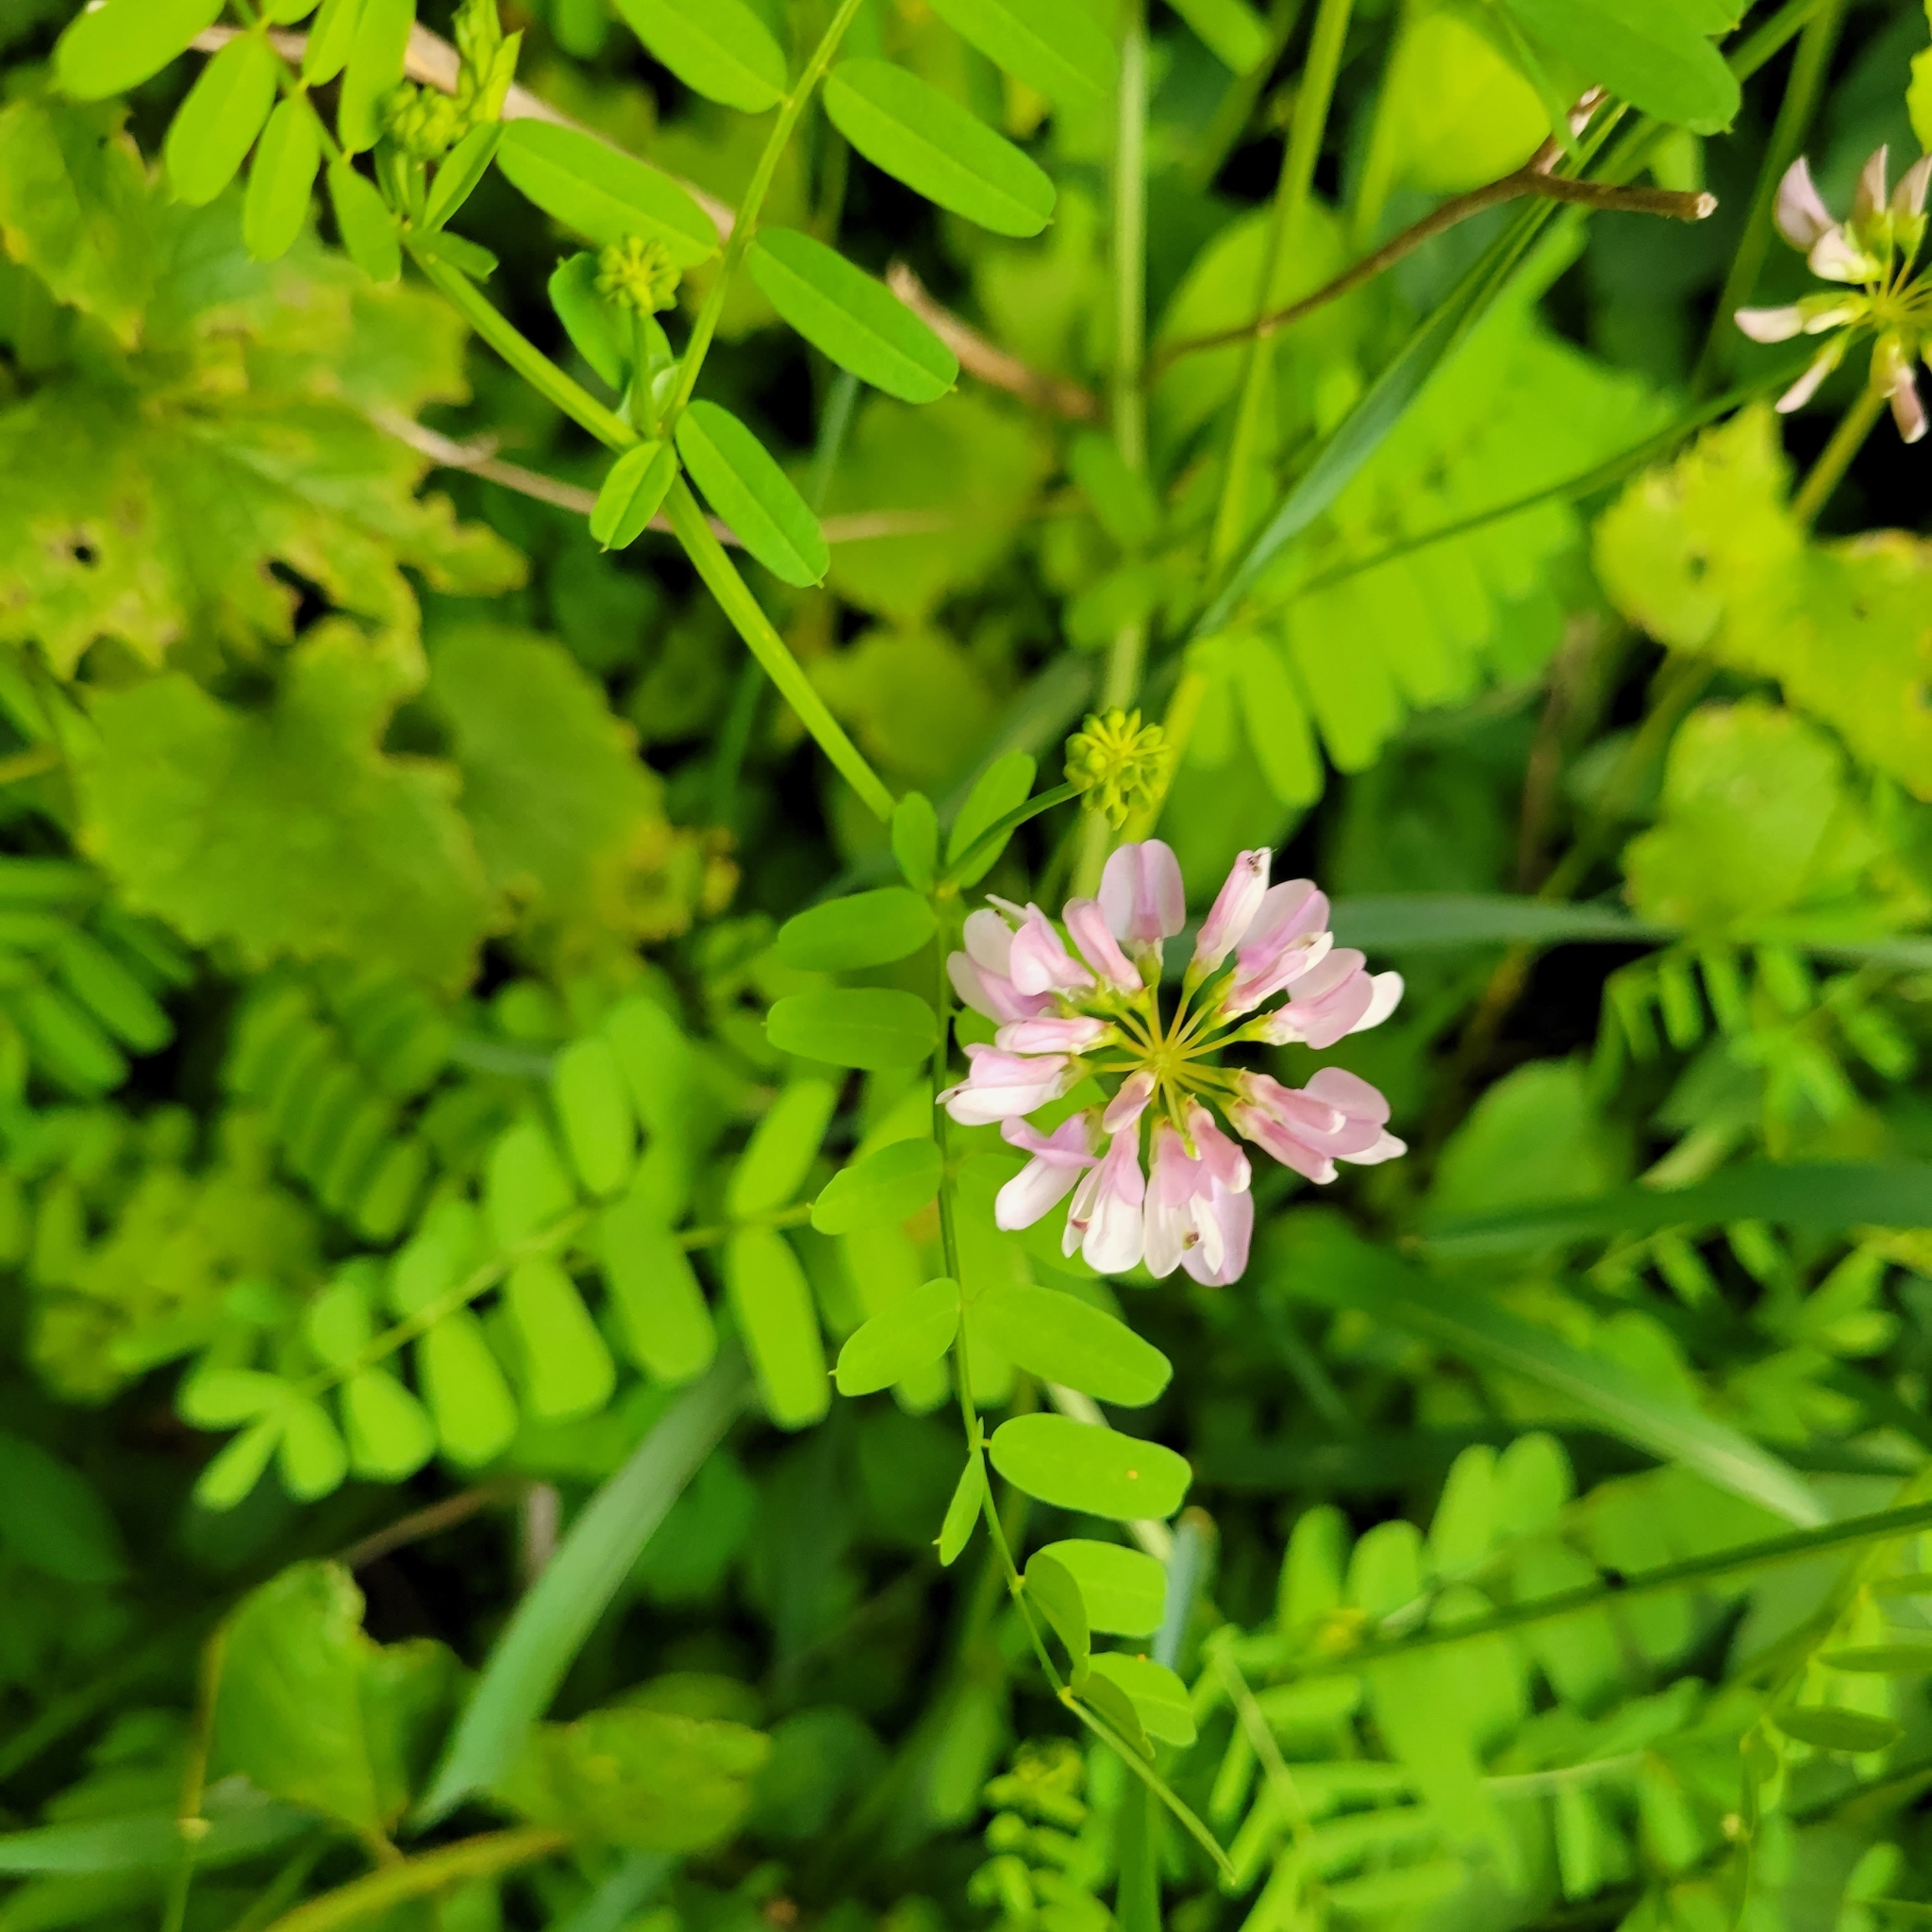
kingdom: Plantae
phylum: Tracheophyta
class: Magnoliopsida
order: Fabales
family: Fabaceae
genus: Coronilla
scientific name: Coronilla varia
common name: Crownvetch
